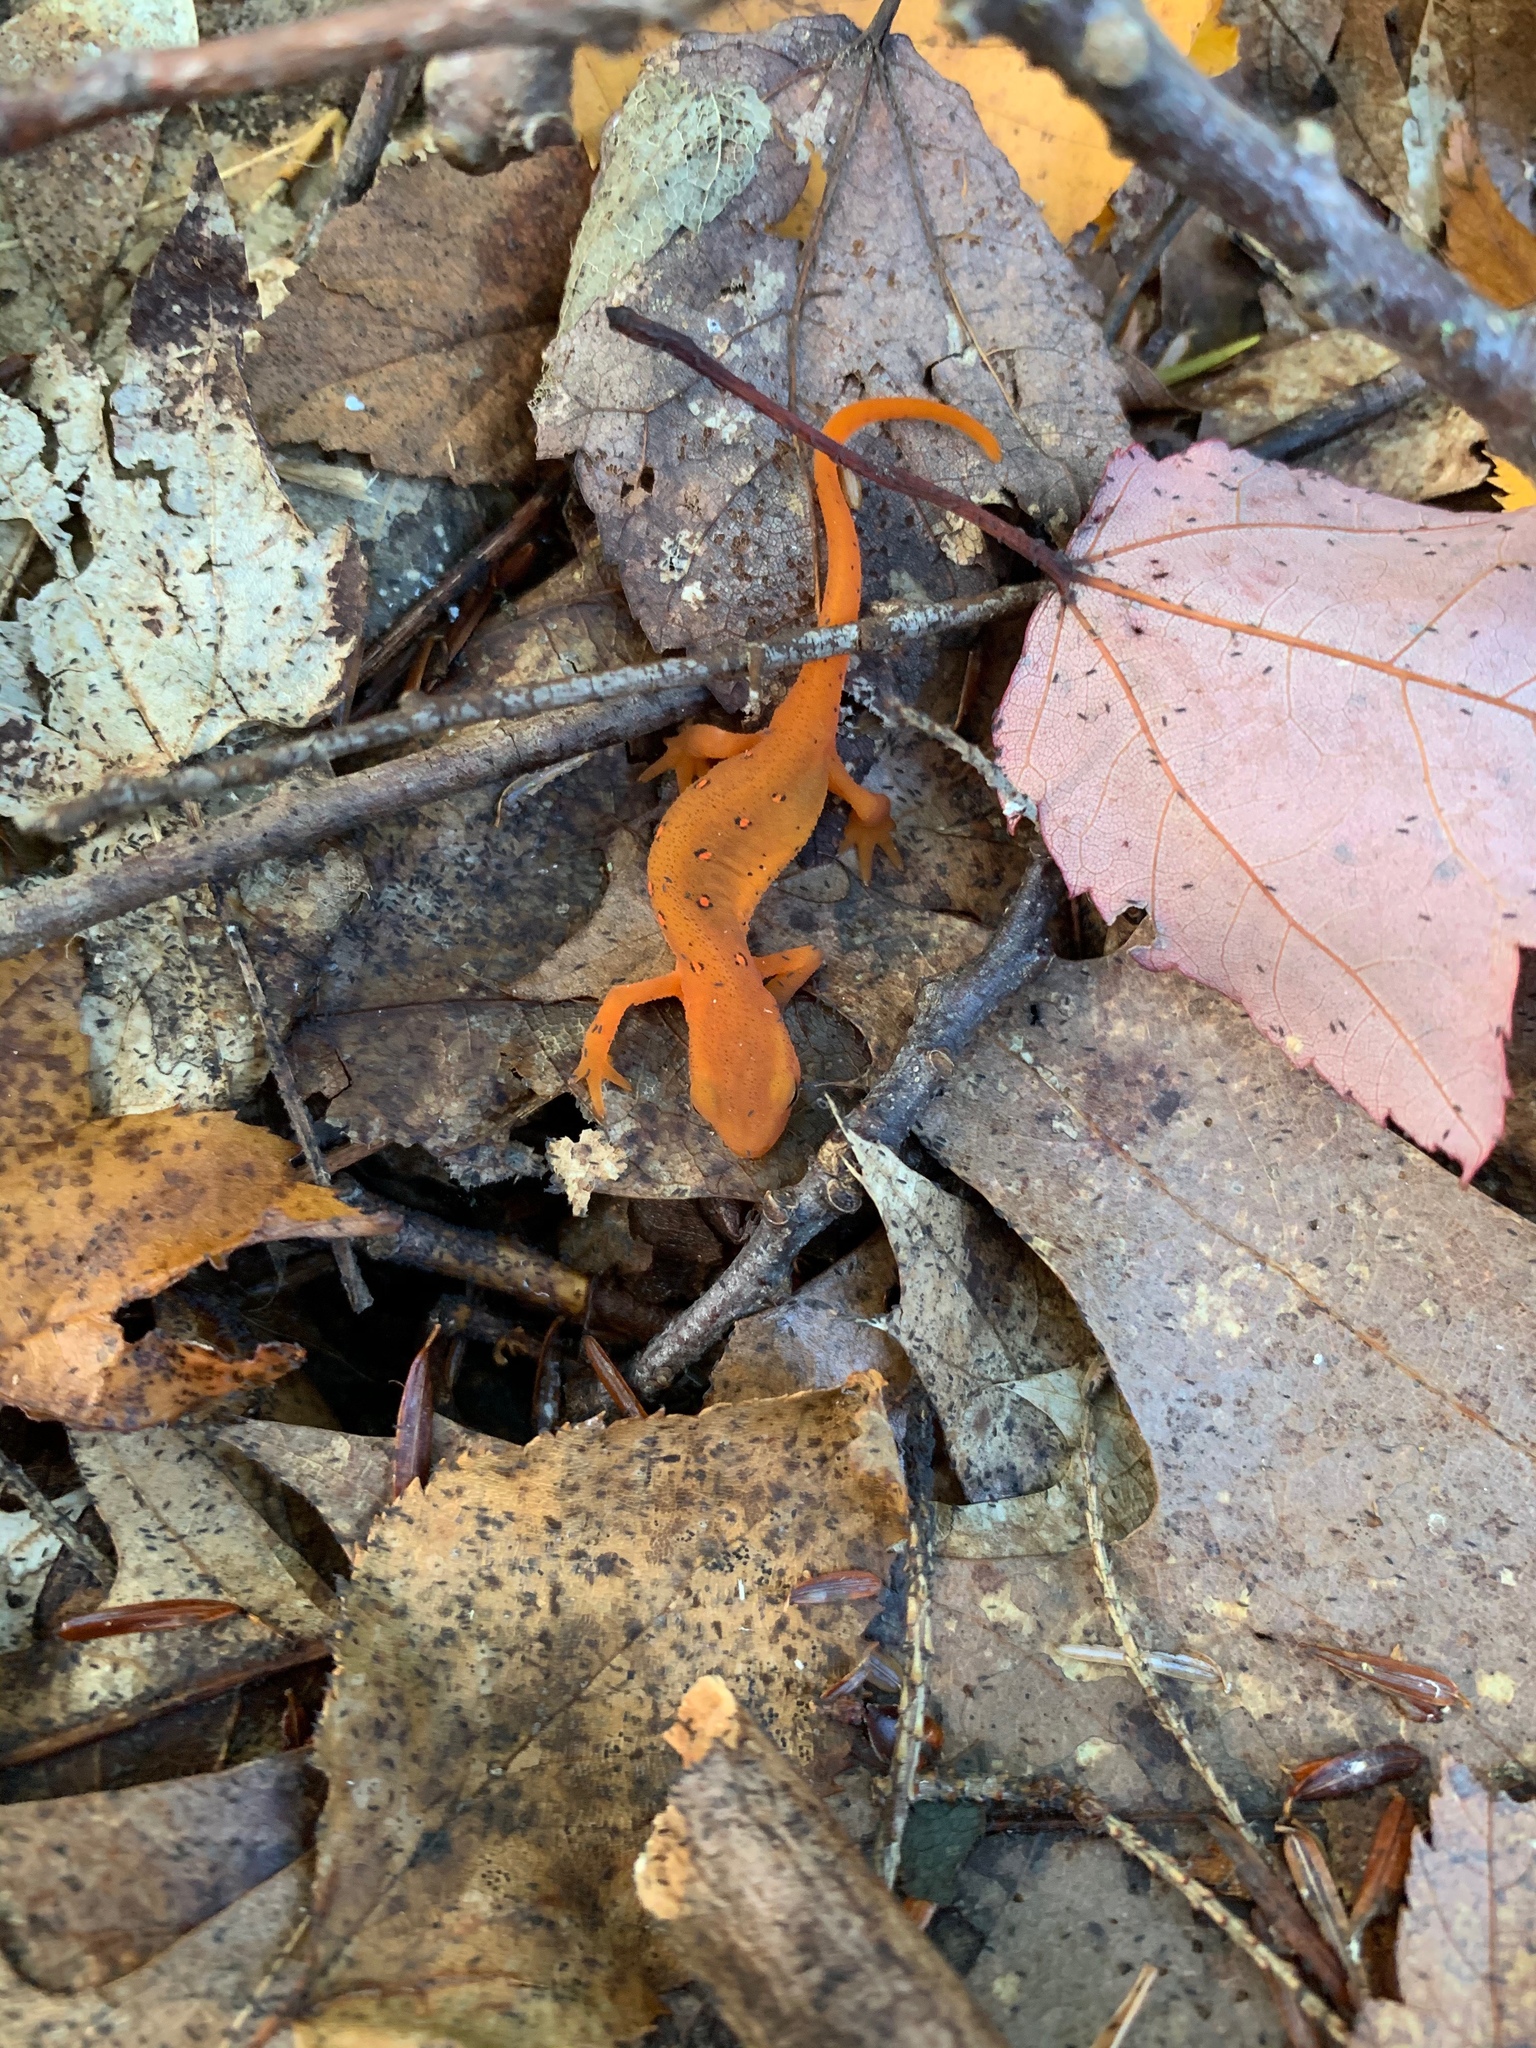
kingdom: Animalia
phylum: Chordata
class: Amphibia
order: Caudata
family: Salamandridae
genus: Notophthalmus
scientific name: Notophthalmus viridescens
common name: Eastern newt
